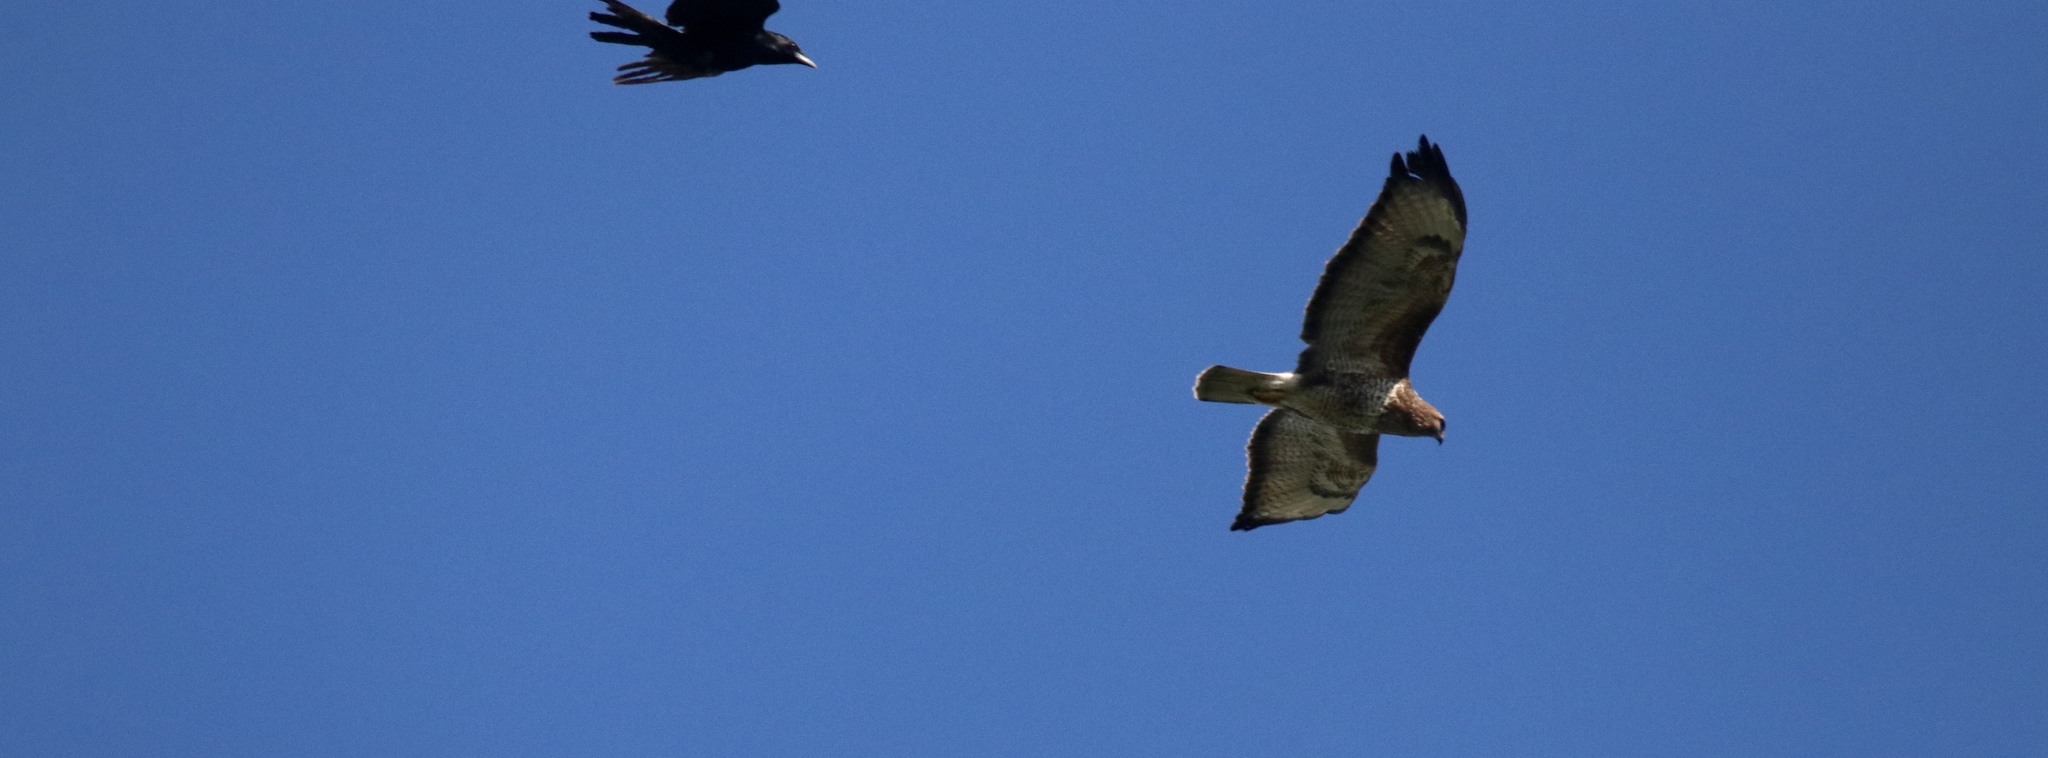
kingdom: Animalia
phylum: Chordata
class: Aves
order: Accipitriformes
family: Accipitridae
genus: Buteo
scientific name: Buteo buteo
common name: Common buzzard
